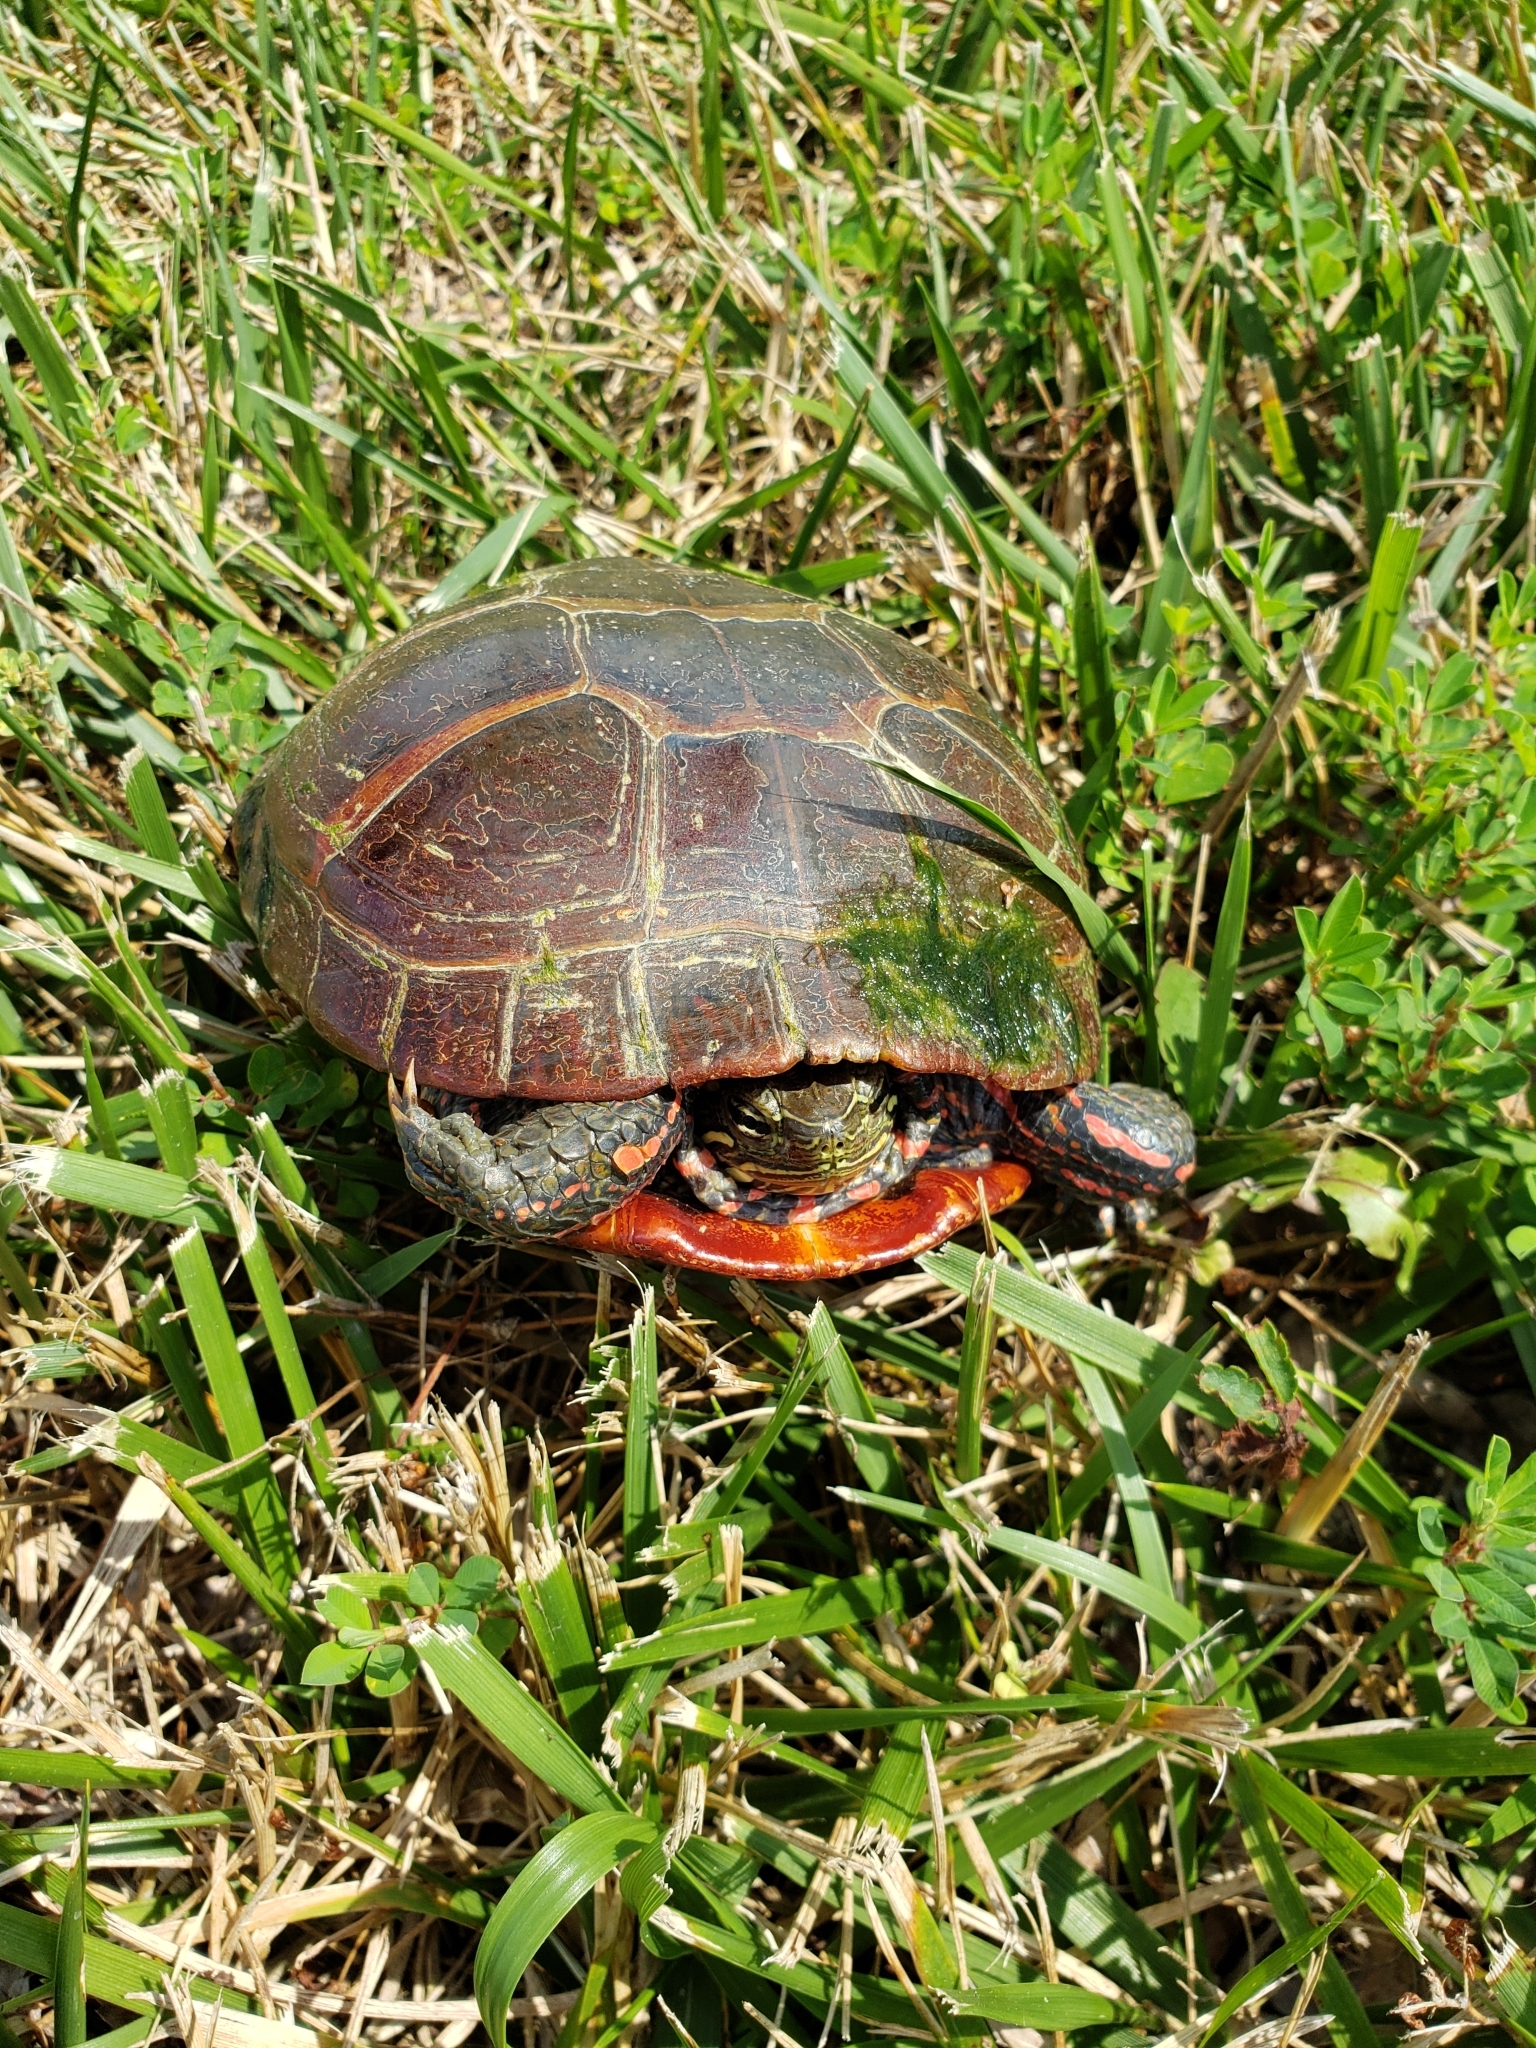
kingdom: Animalia
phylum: Chordata
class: Testudines
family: Emydidae
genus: Chrysemys
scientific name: Chrysemys picta
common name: Painted turtle
